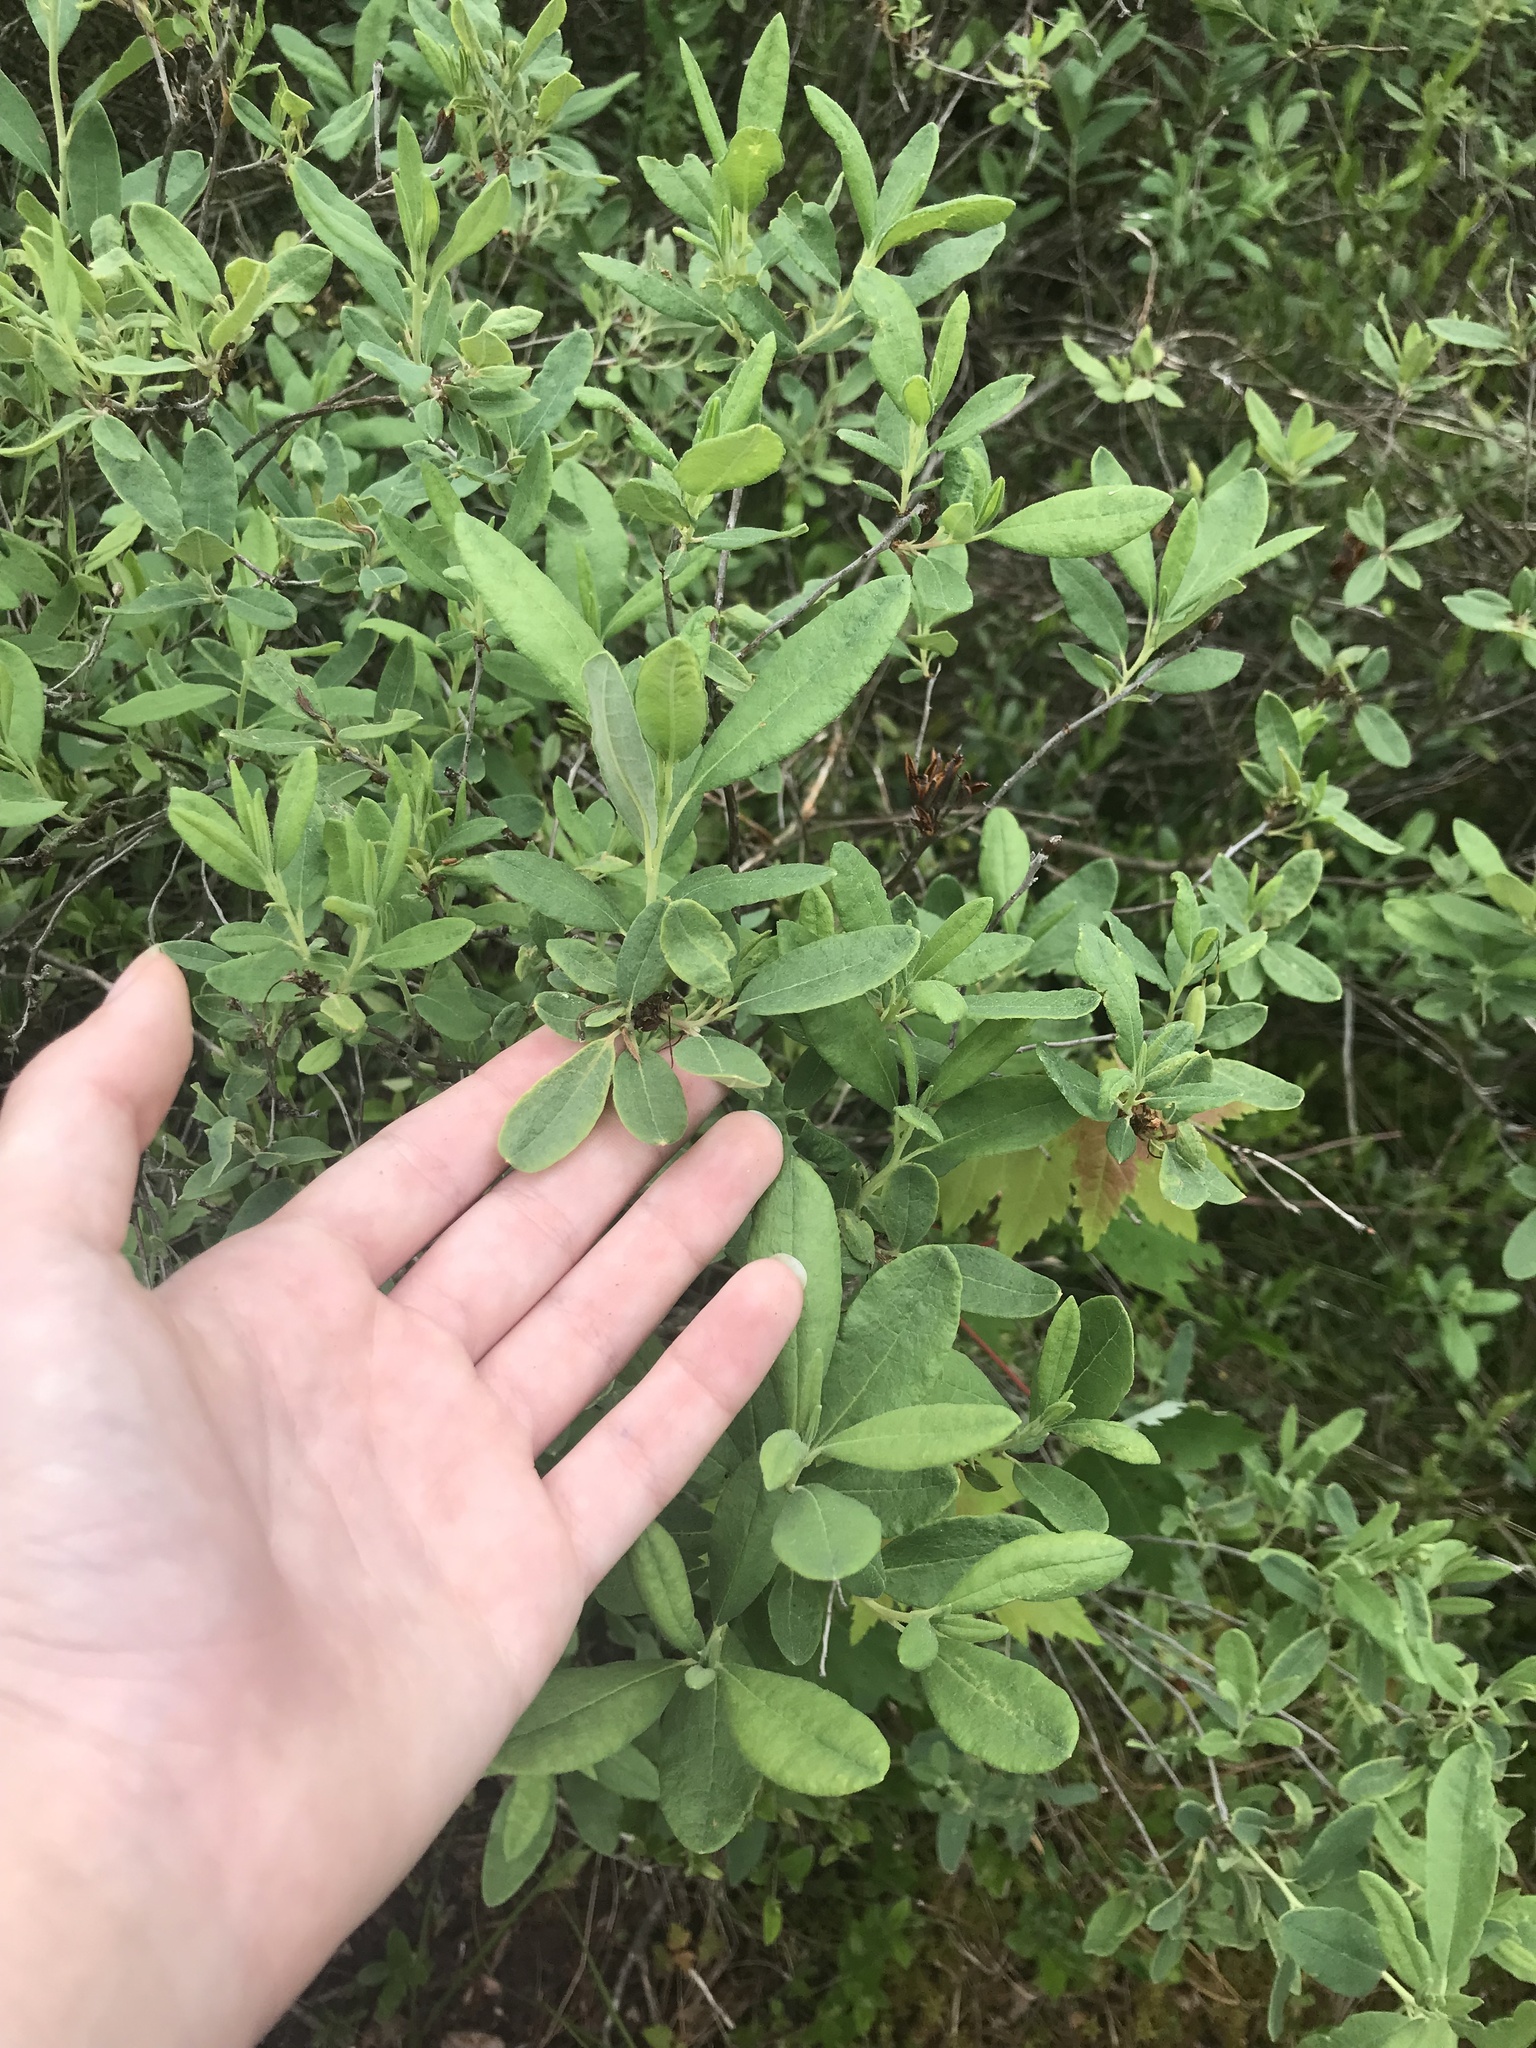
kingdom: Plantae
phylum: Tracheophyta
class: Magnoliopsida
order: Ericales
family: Ericaceae
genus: Rhododendron
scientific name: Rhododendron canadense
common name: Rhodora
